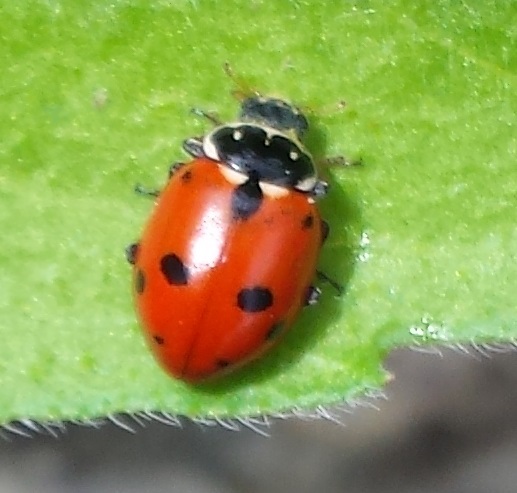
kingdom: Animalia
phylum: Arthropoda
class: Insecta
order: Coleoptera
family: Coccinellidae
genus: Hippodamia
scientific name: Hippodamia variegata
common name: Ladybird beetle
